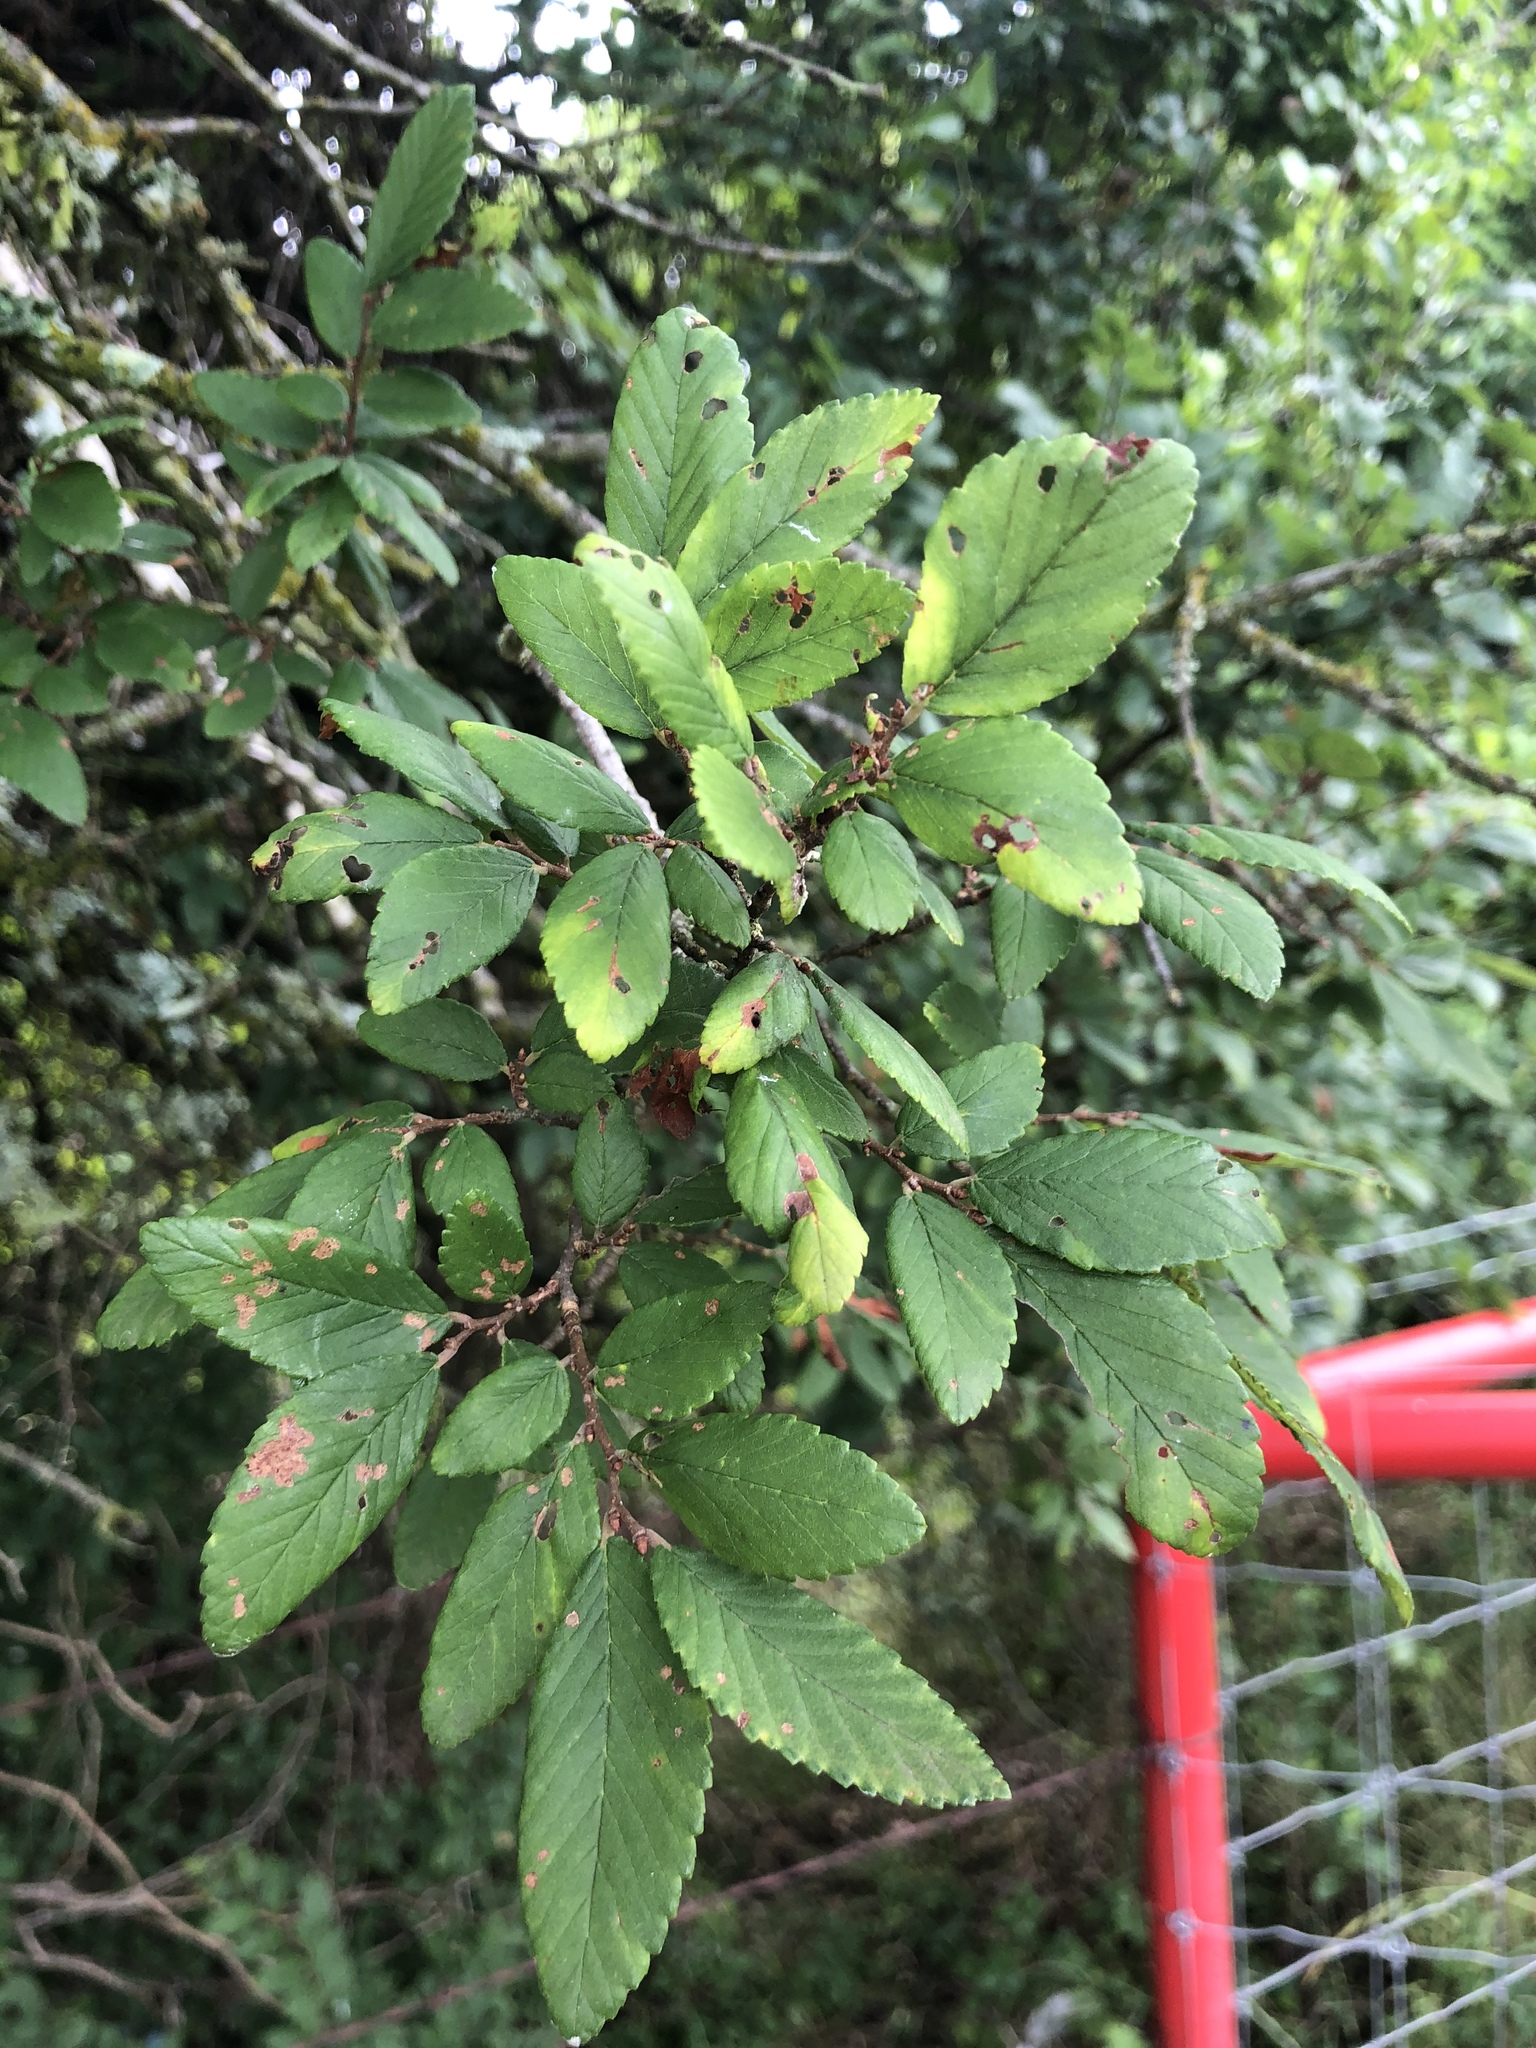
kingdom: Plantae
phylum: Tracheophyta
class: Magnoliopsida
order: Rosales
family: Ulmaceae
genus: Ulmus
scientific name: Ulmus crassifolia
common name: Basket elm
